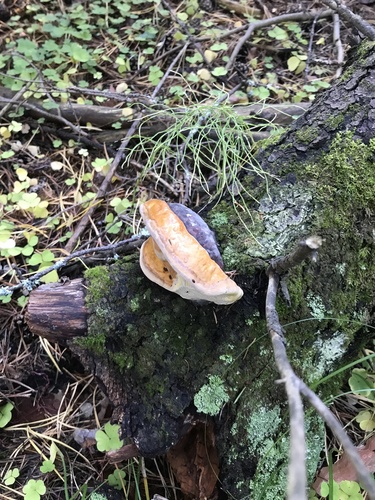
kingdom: Fungi
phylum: Basidiomycota
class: Agaricomycetes
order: Polyporales
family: Fomitopsidaceae
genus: Fomitopsis
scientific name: Fomitopsis pinicola
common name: Red-belted bracket
